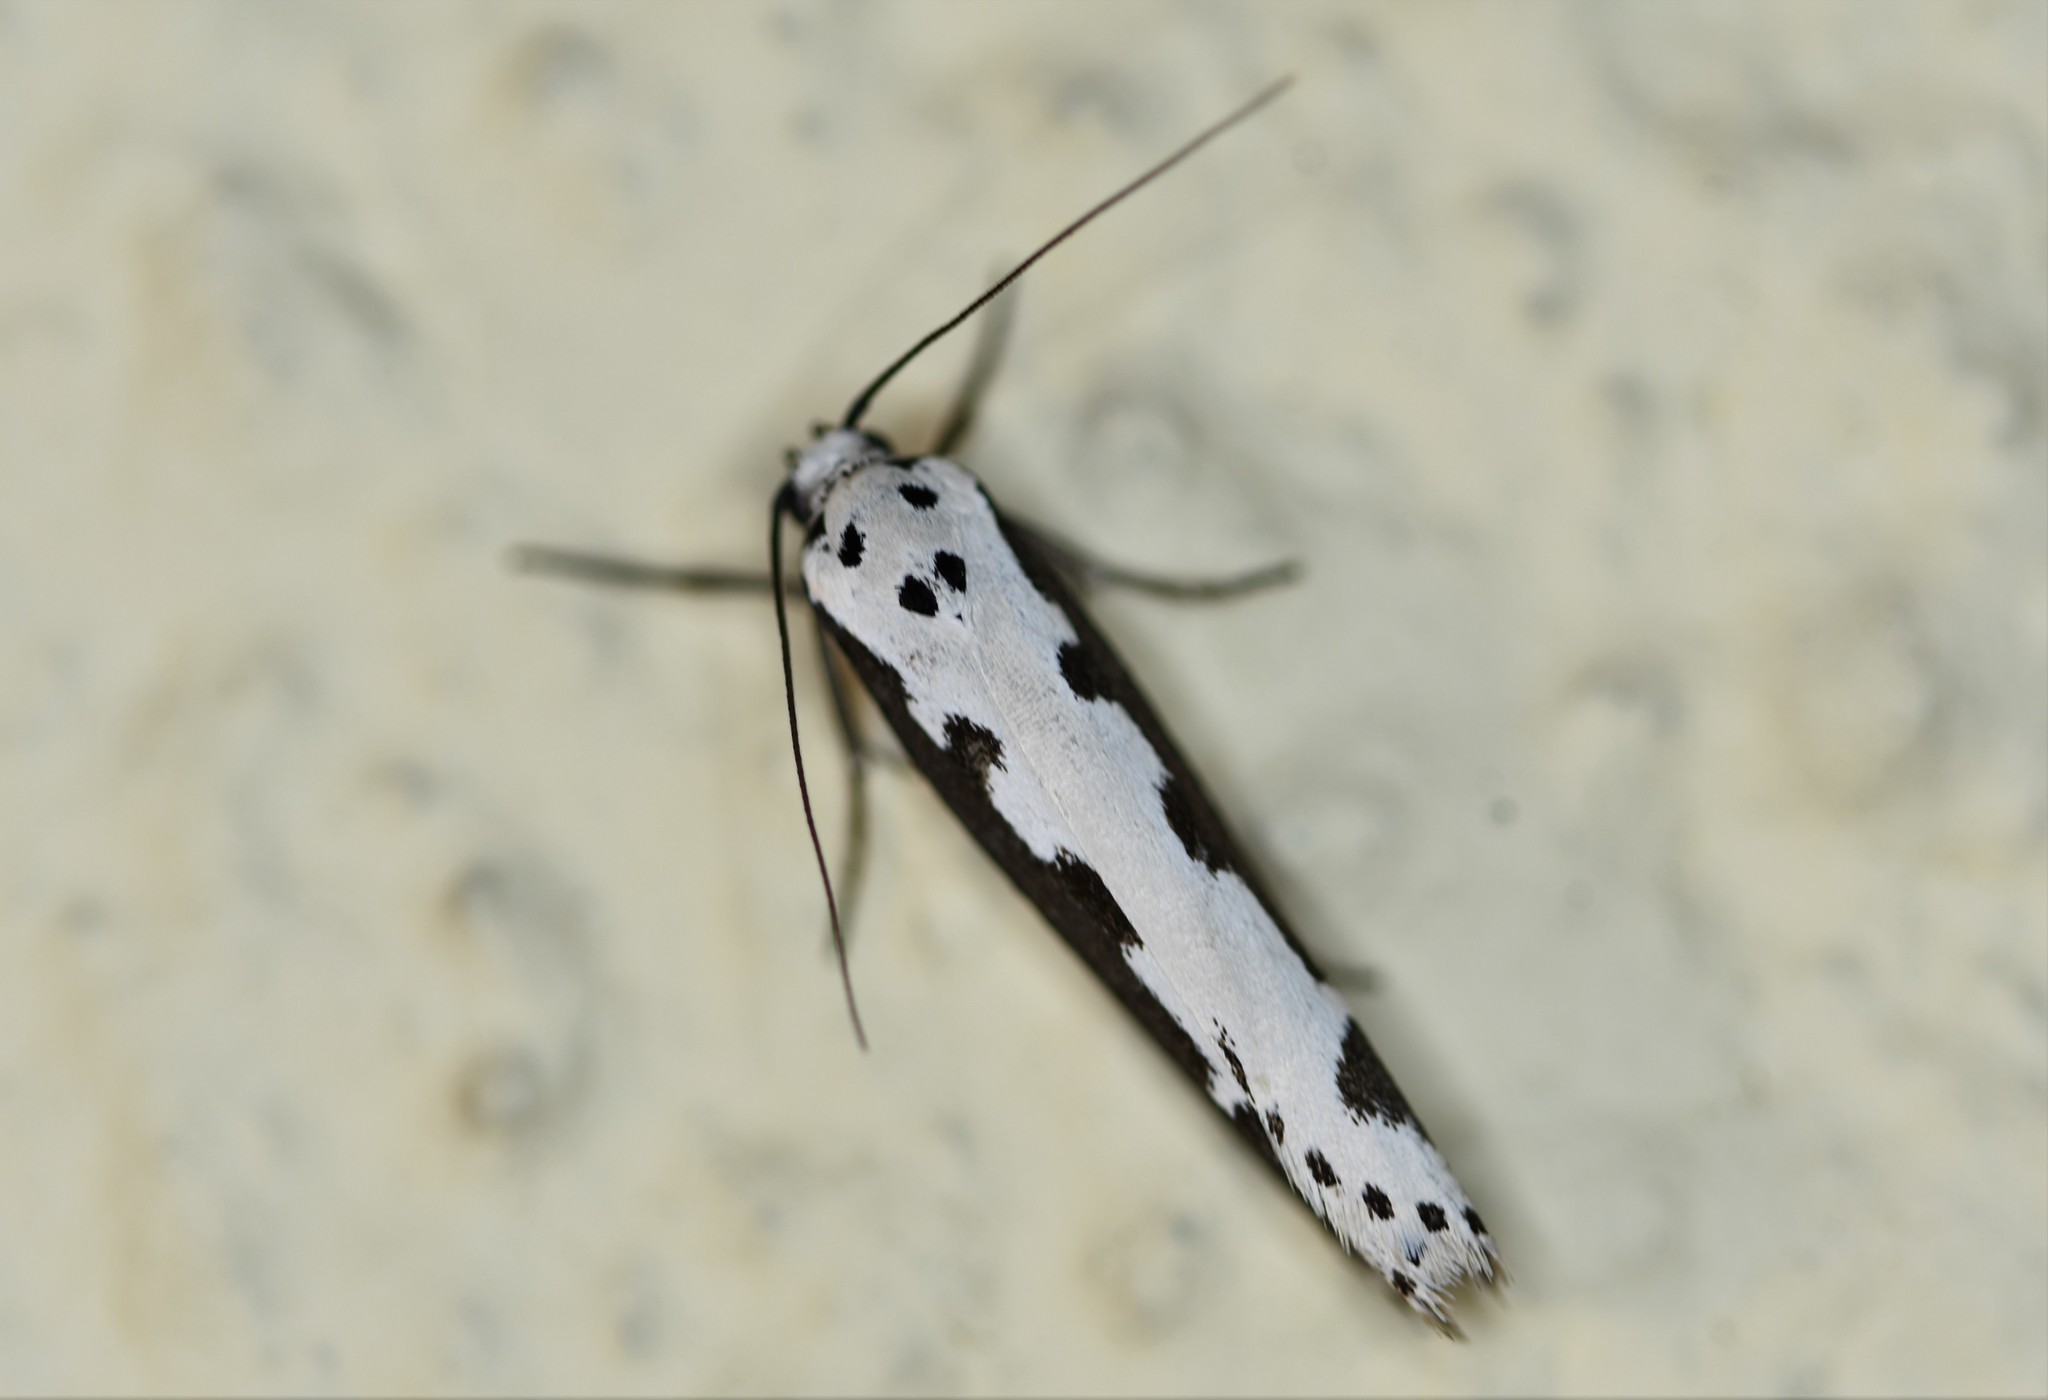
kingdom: Animalia
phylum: Arthropoda
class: Insecta
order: Lepidoptera
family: Ethmiidae
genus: Ethmia
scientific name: Ethmia bipunctella
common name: Bordered ermel
